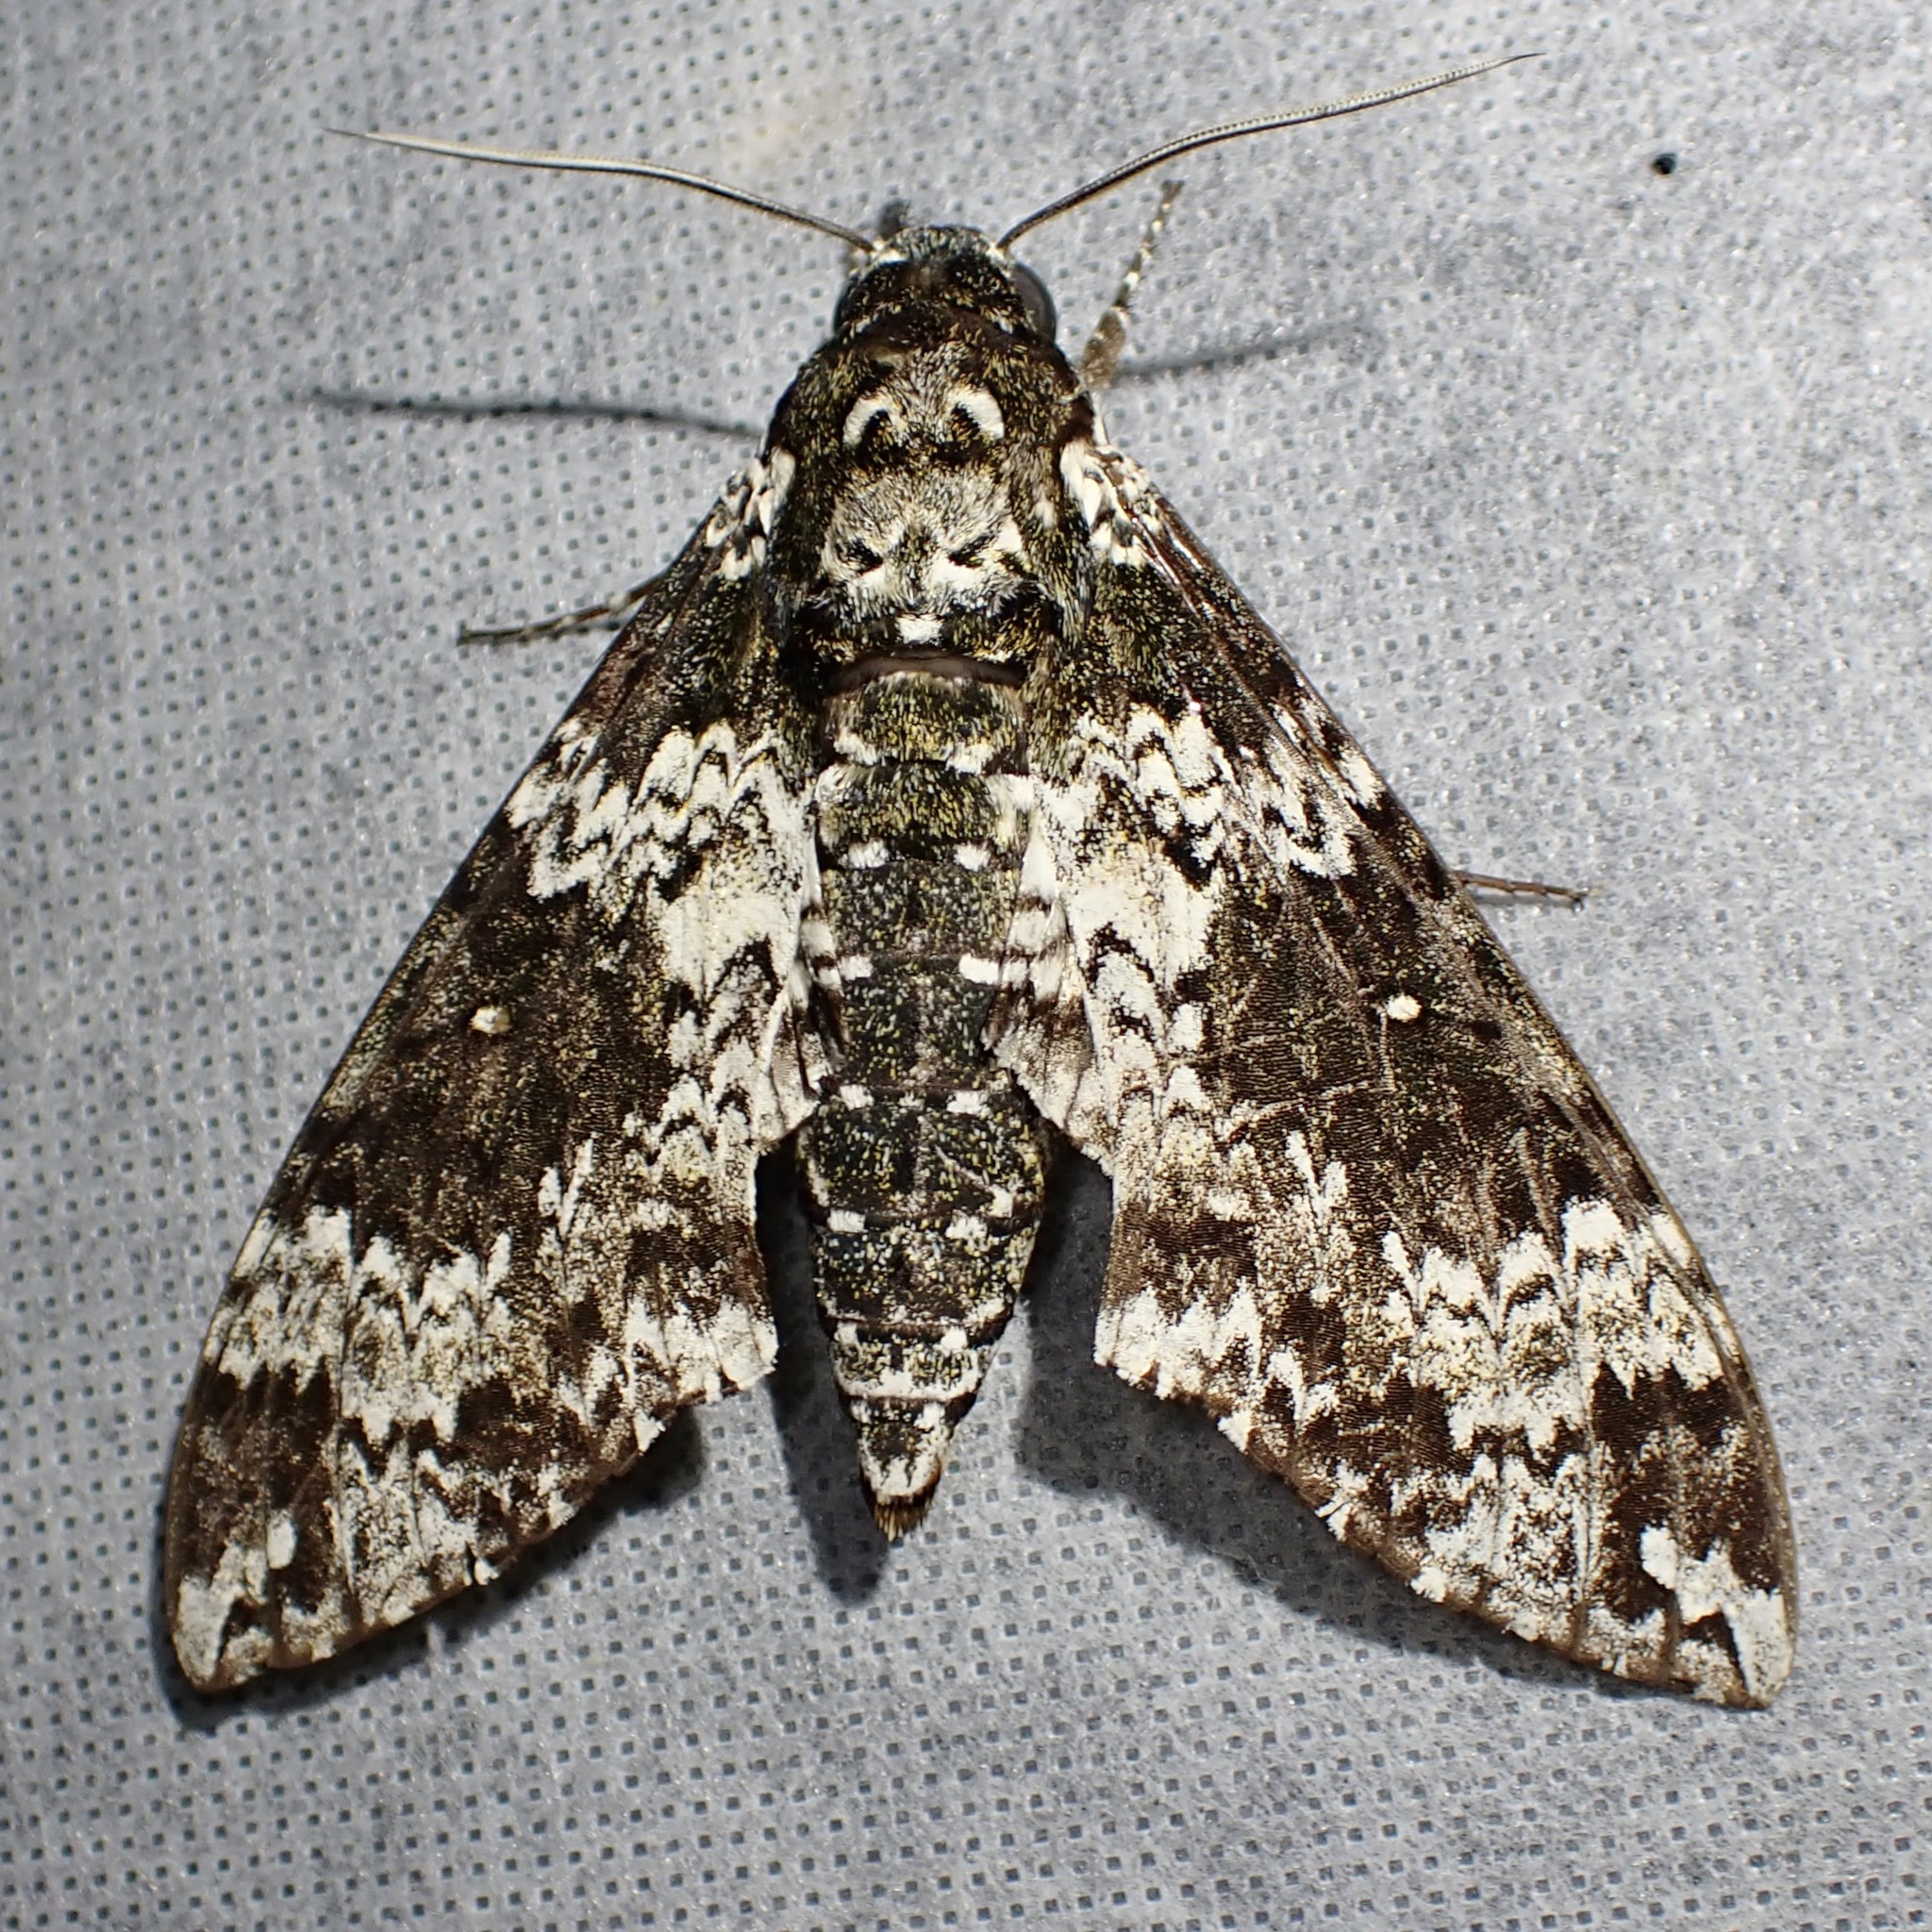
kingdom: Animalia
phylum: Arthropoda
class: Insecta
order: Lepidoptera
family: Sphingidae
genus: Manduca
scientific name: Manduca rustica
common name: Rustic sphinx
